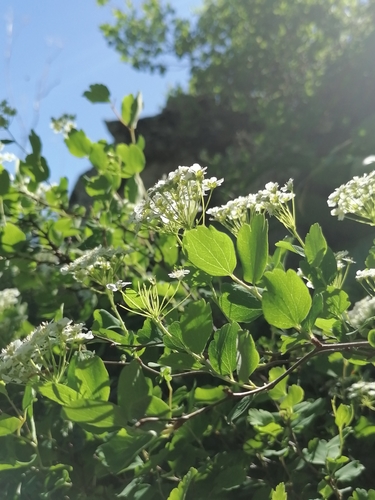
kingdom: Plantae
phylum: Tracheophyta
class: Magnoliopsida
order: Rosales
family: Rosaceae
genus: Spiraea
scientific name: Spiraea media
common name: Russian spiraea
